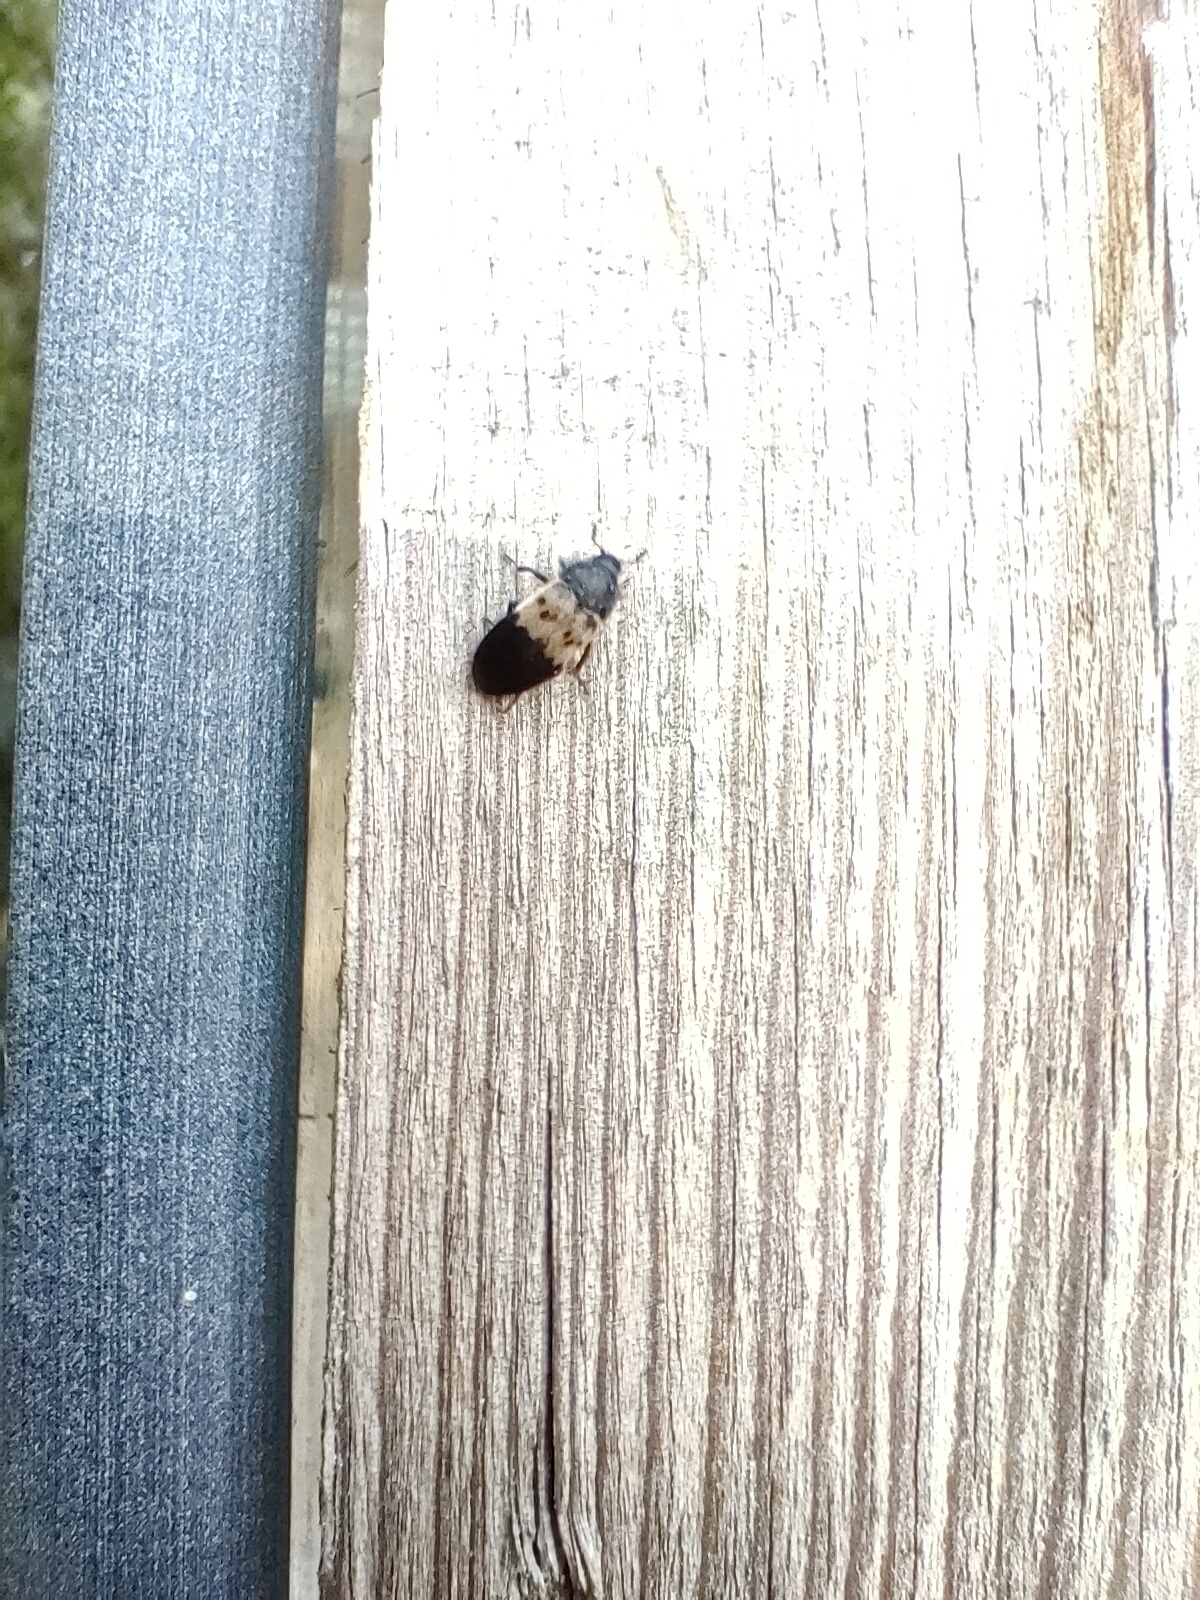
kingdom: Animalia
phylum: Arthropoda
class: Insecta
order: Coleoptera
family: Dermestidae
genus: Dermestes
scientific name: Dermestes lardarius
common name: Larder beetle
